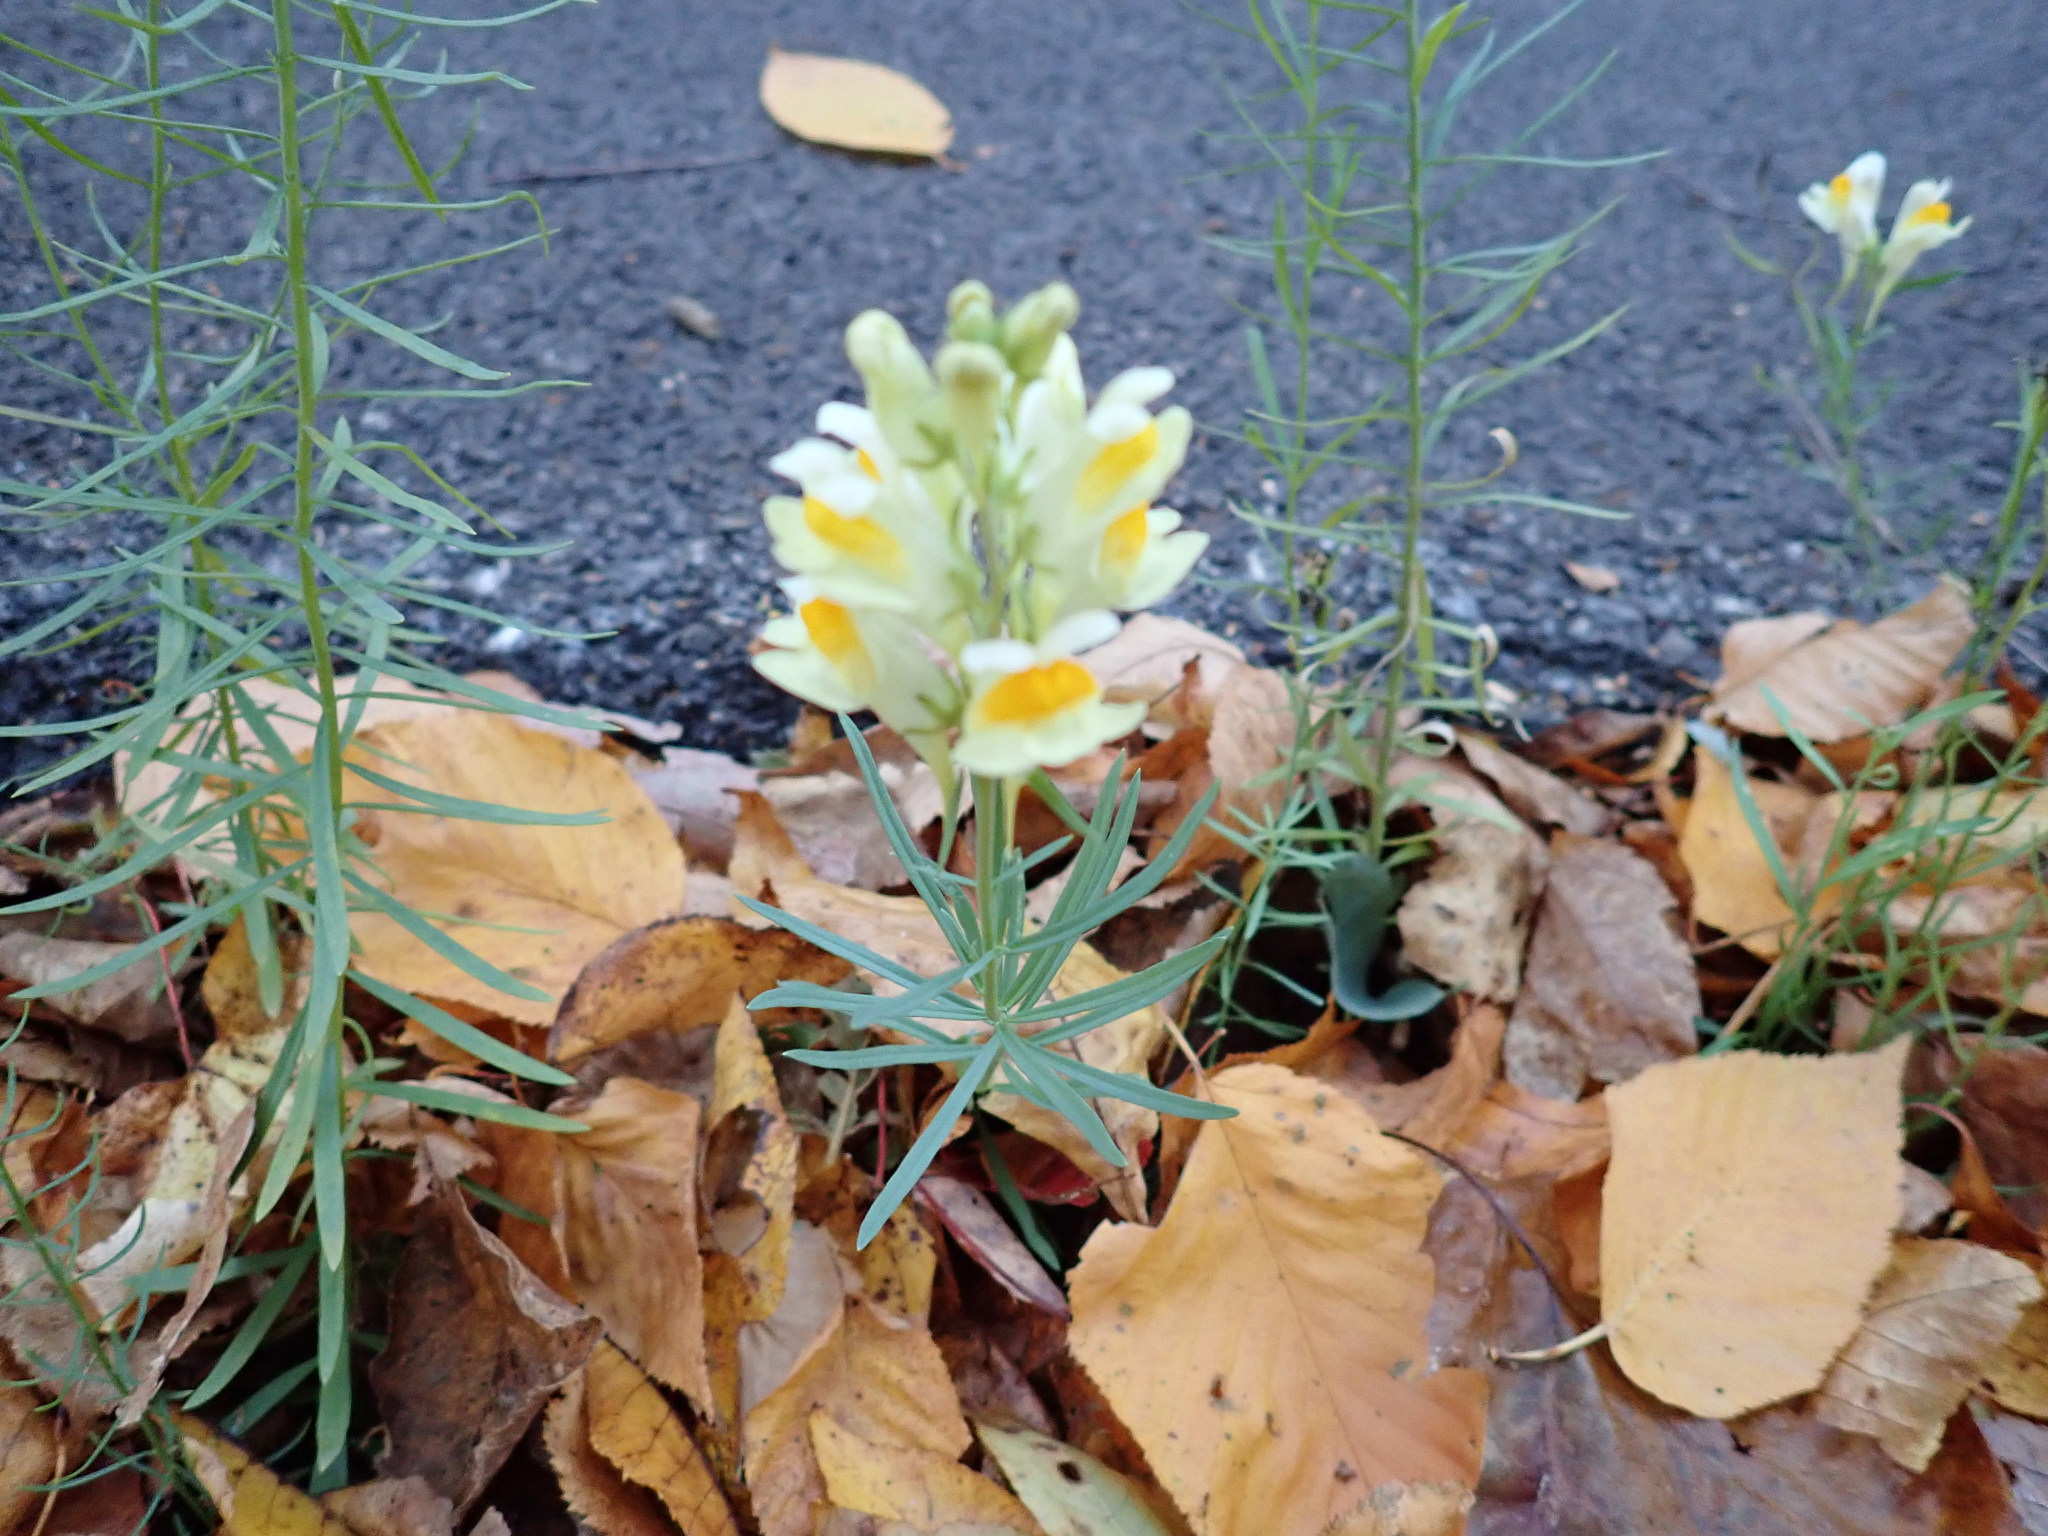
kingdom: Plantae
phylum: Tracheophyta
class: Magnoliopsida
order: Lamiales
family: Plantaginaceae
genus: Linaria
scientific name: Linaria vulgaris
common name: Butter and eggs
